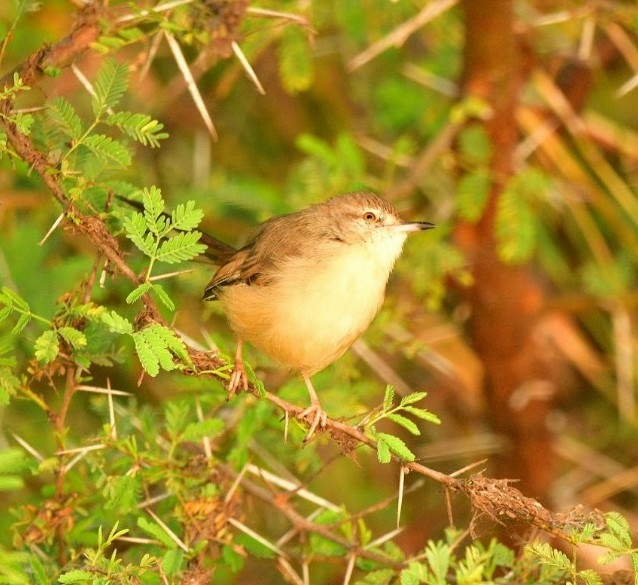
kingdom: Animalia
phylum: Chordata
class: Aves
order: Passeriformes
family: Cisticolidae
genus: Prinia
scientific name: Prinia inornata
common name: Plain prinia
